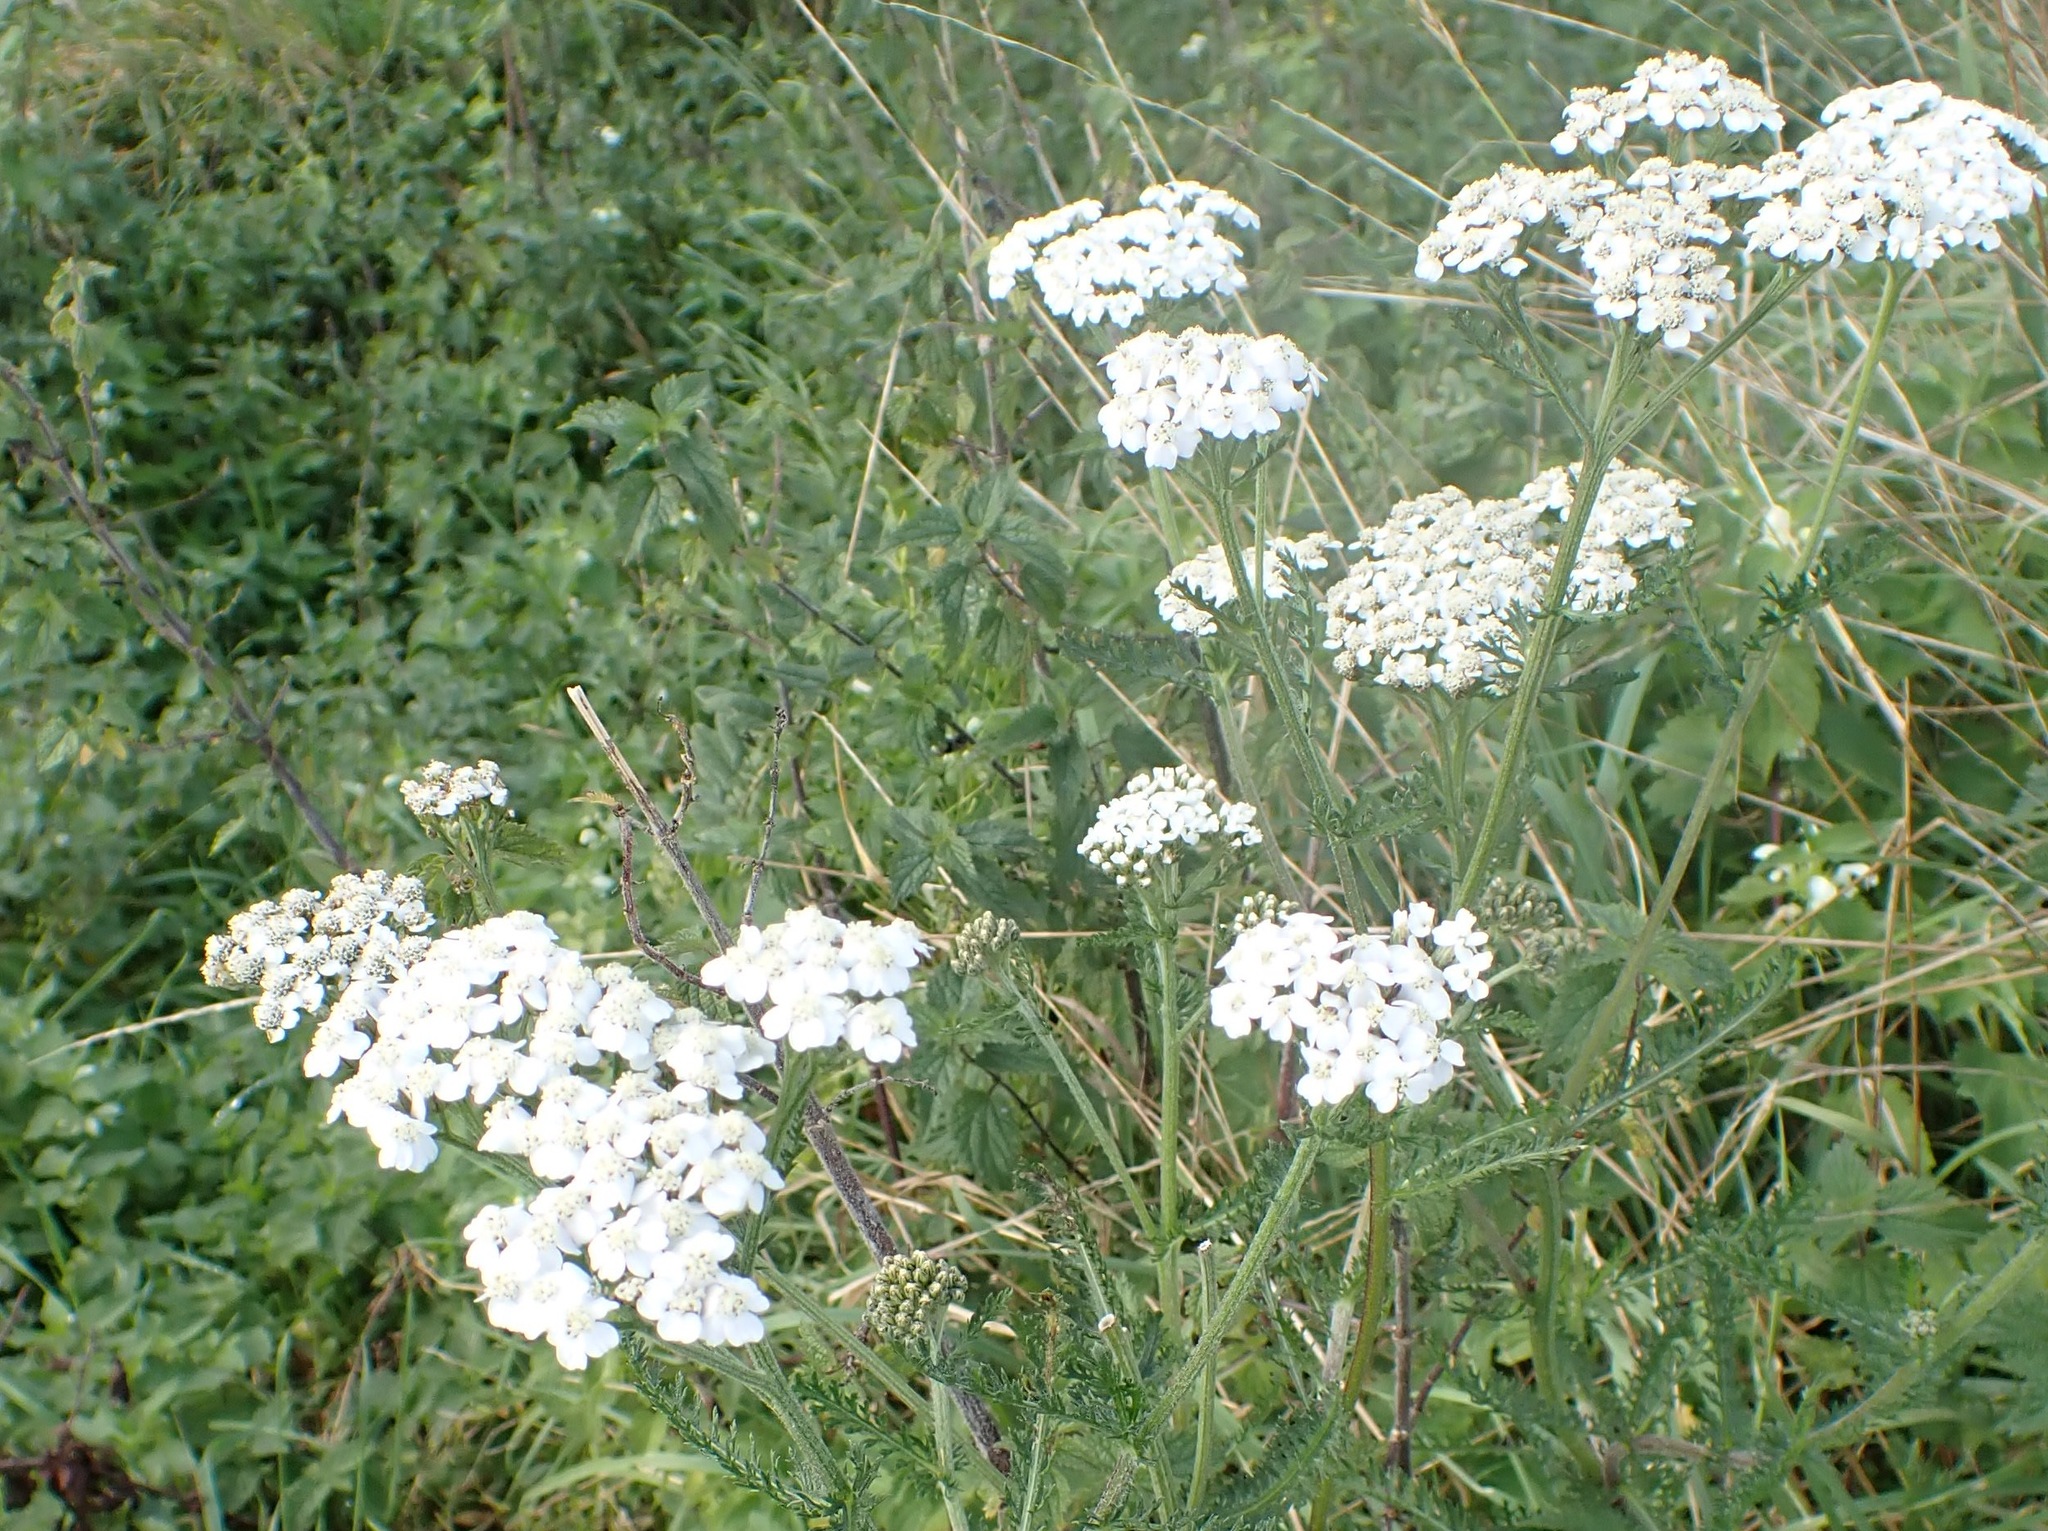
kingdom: Plantae
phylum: Tracheophyta
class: Magnoliopsida
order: Asterales
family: Asteraceae
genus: Achillea
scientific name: Achillea millefolium
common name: Yarrow
